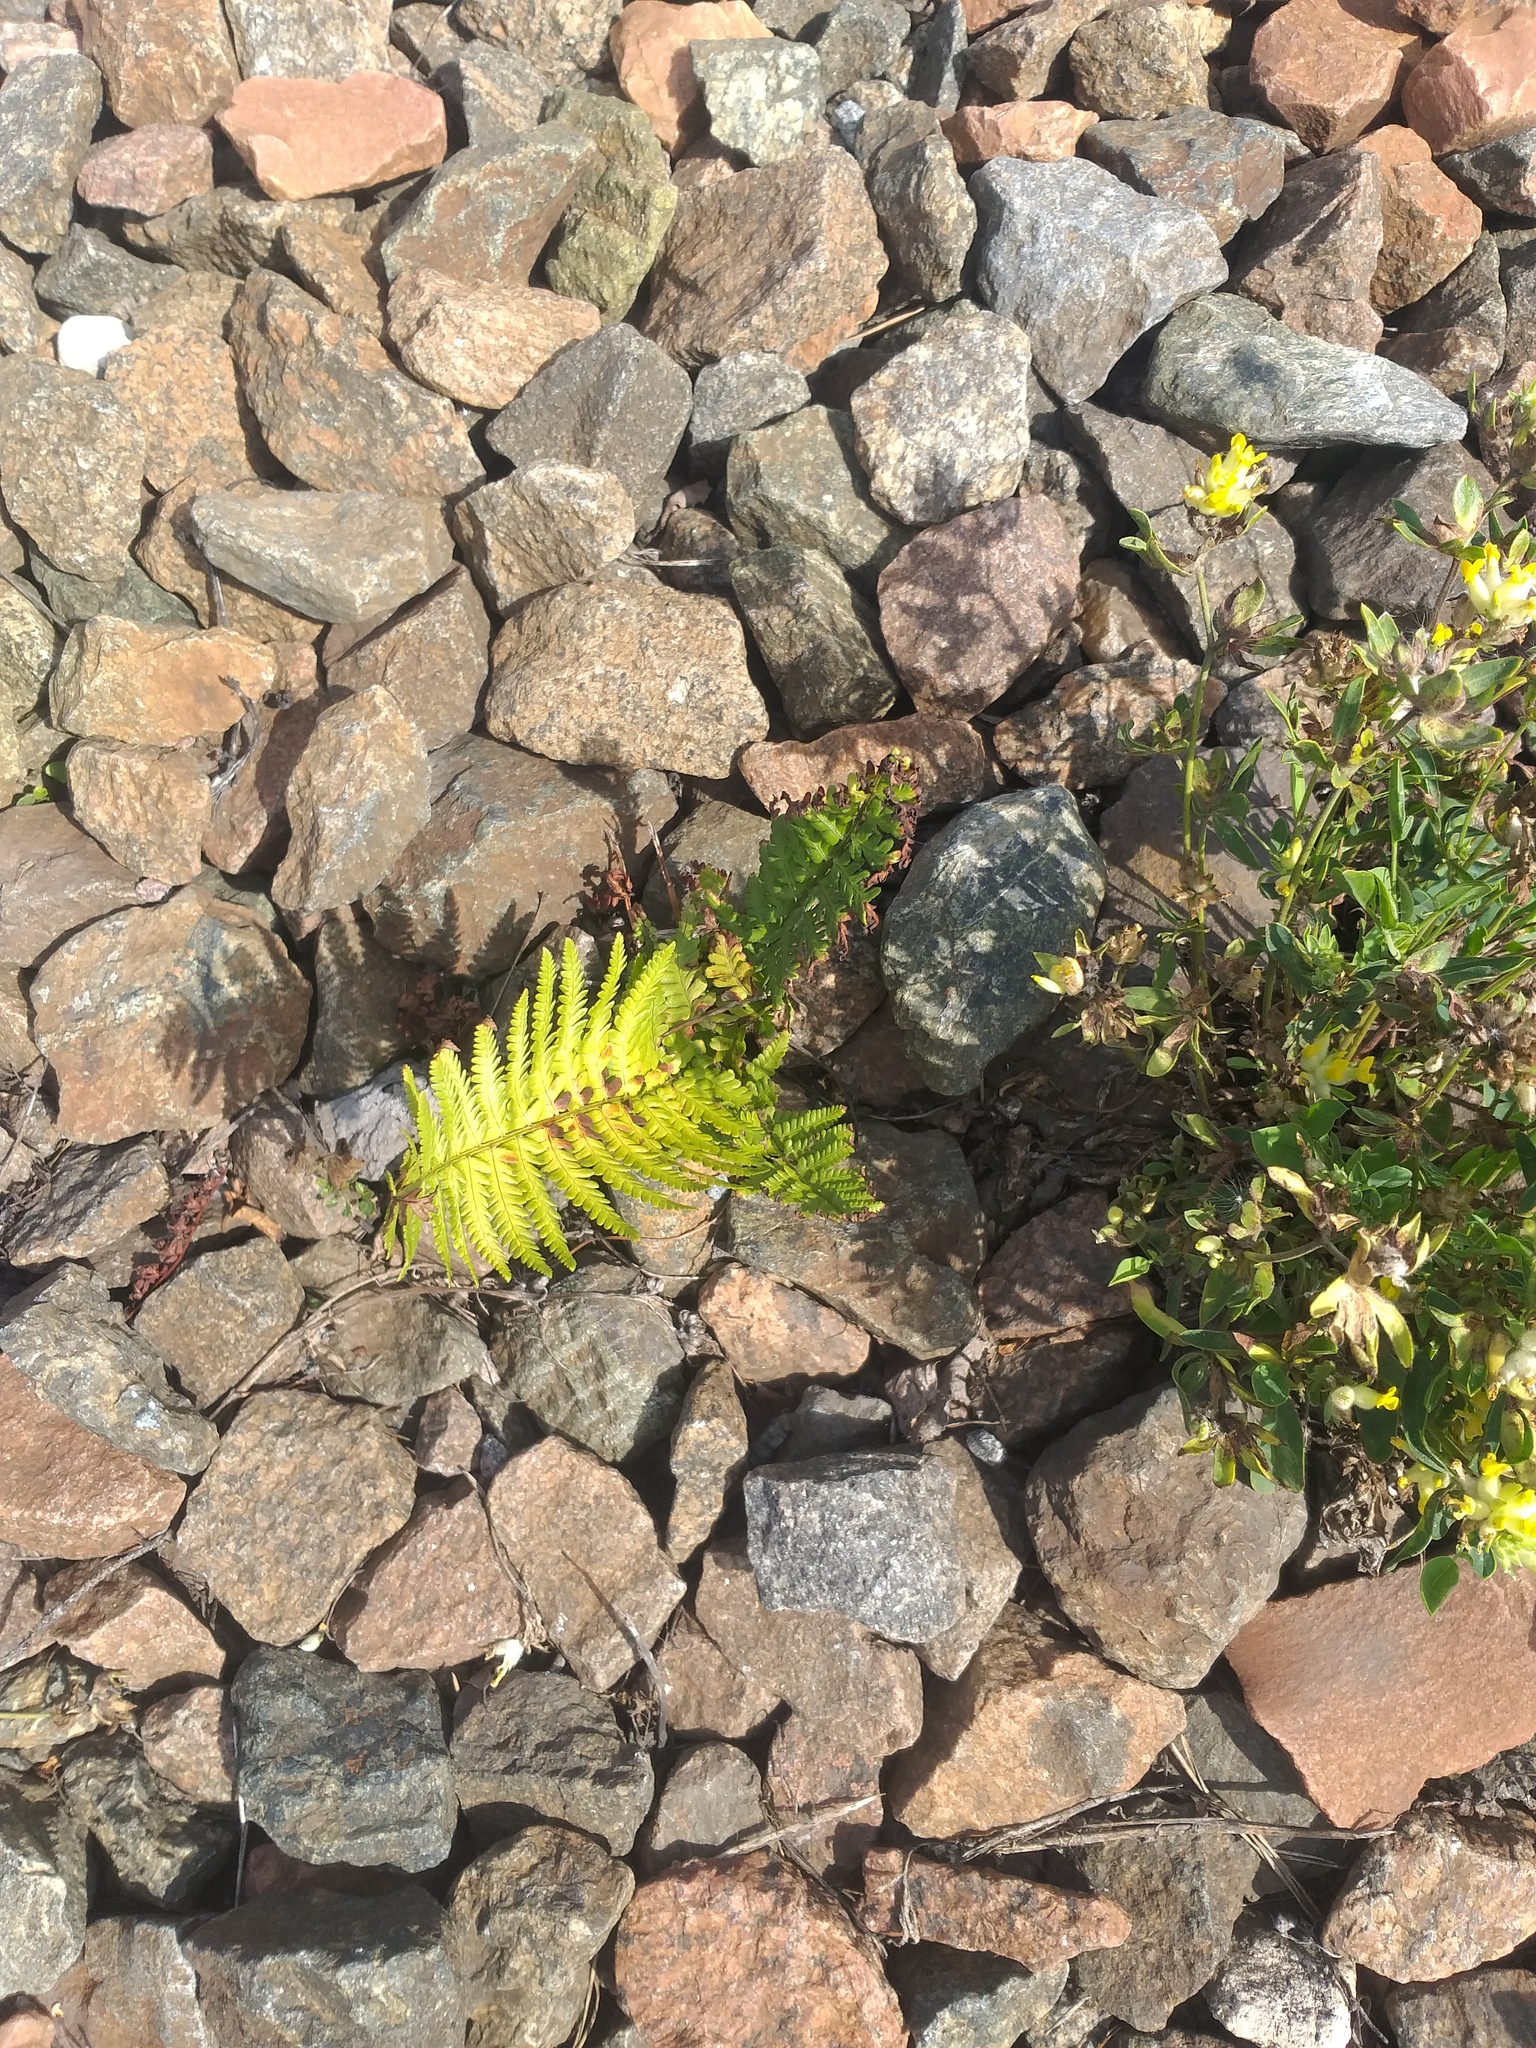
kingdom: Plantae
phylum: Tracheophyta
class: Polypodiopsida
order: Polypodiales
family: Dryopteridaceae
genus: Dryopteris
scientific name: Dryopteris filix-mas
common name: Male fern
